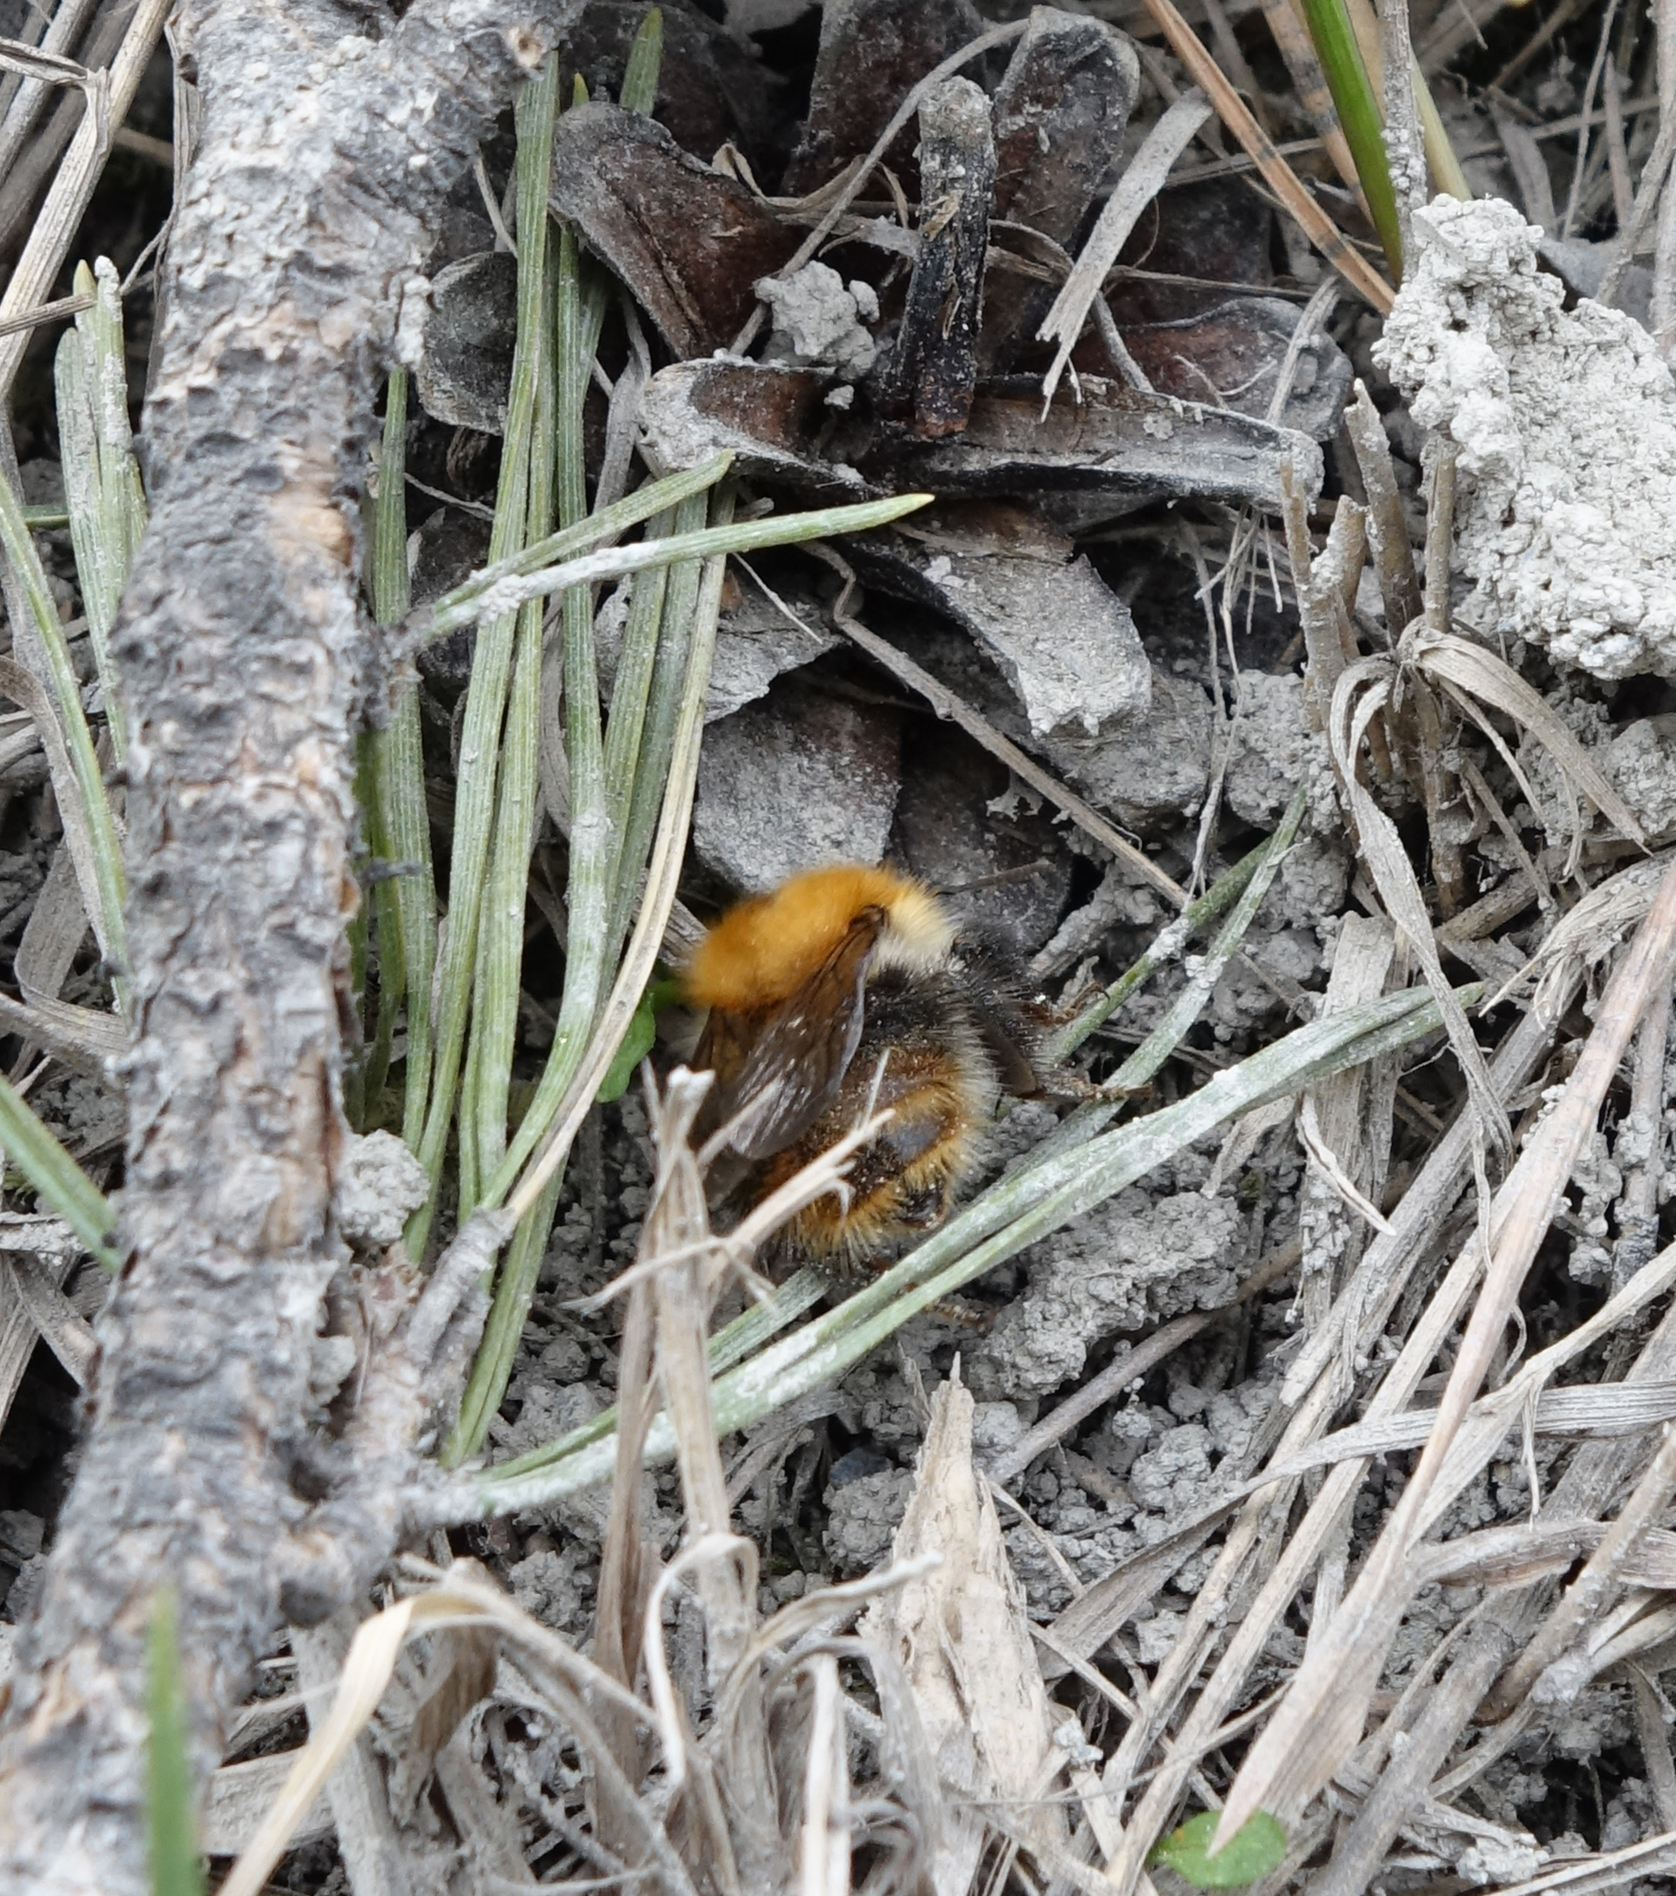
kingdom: Animalia
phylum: Arthropoda
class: Insecta
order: Hymenoptera
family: Apidae
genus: Bombus
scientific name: Bombus pascuorum
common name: Common carder bee
